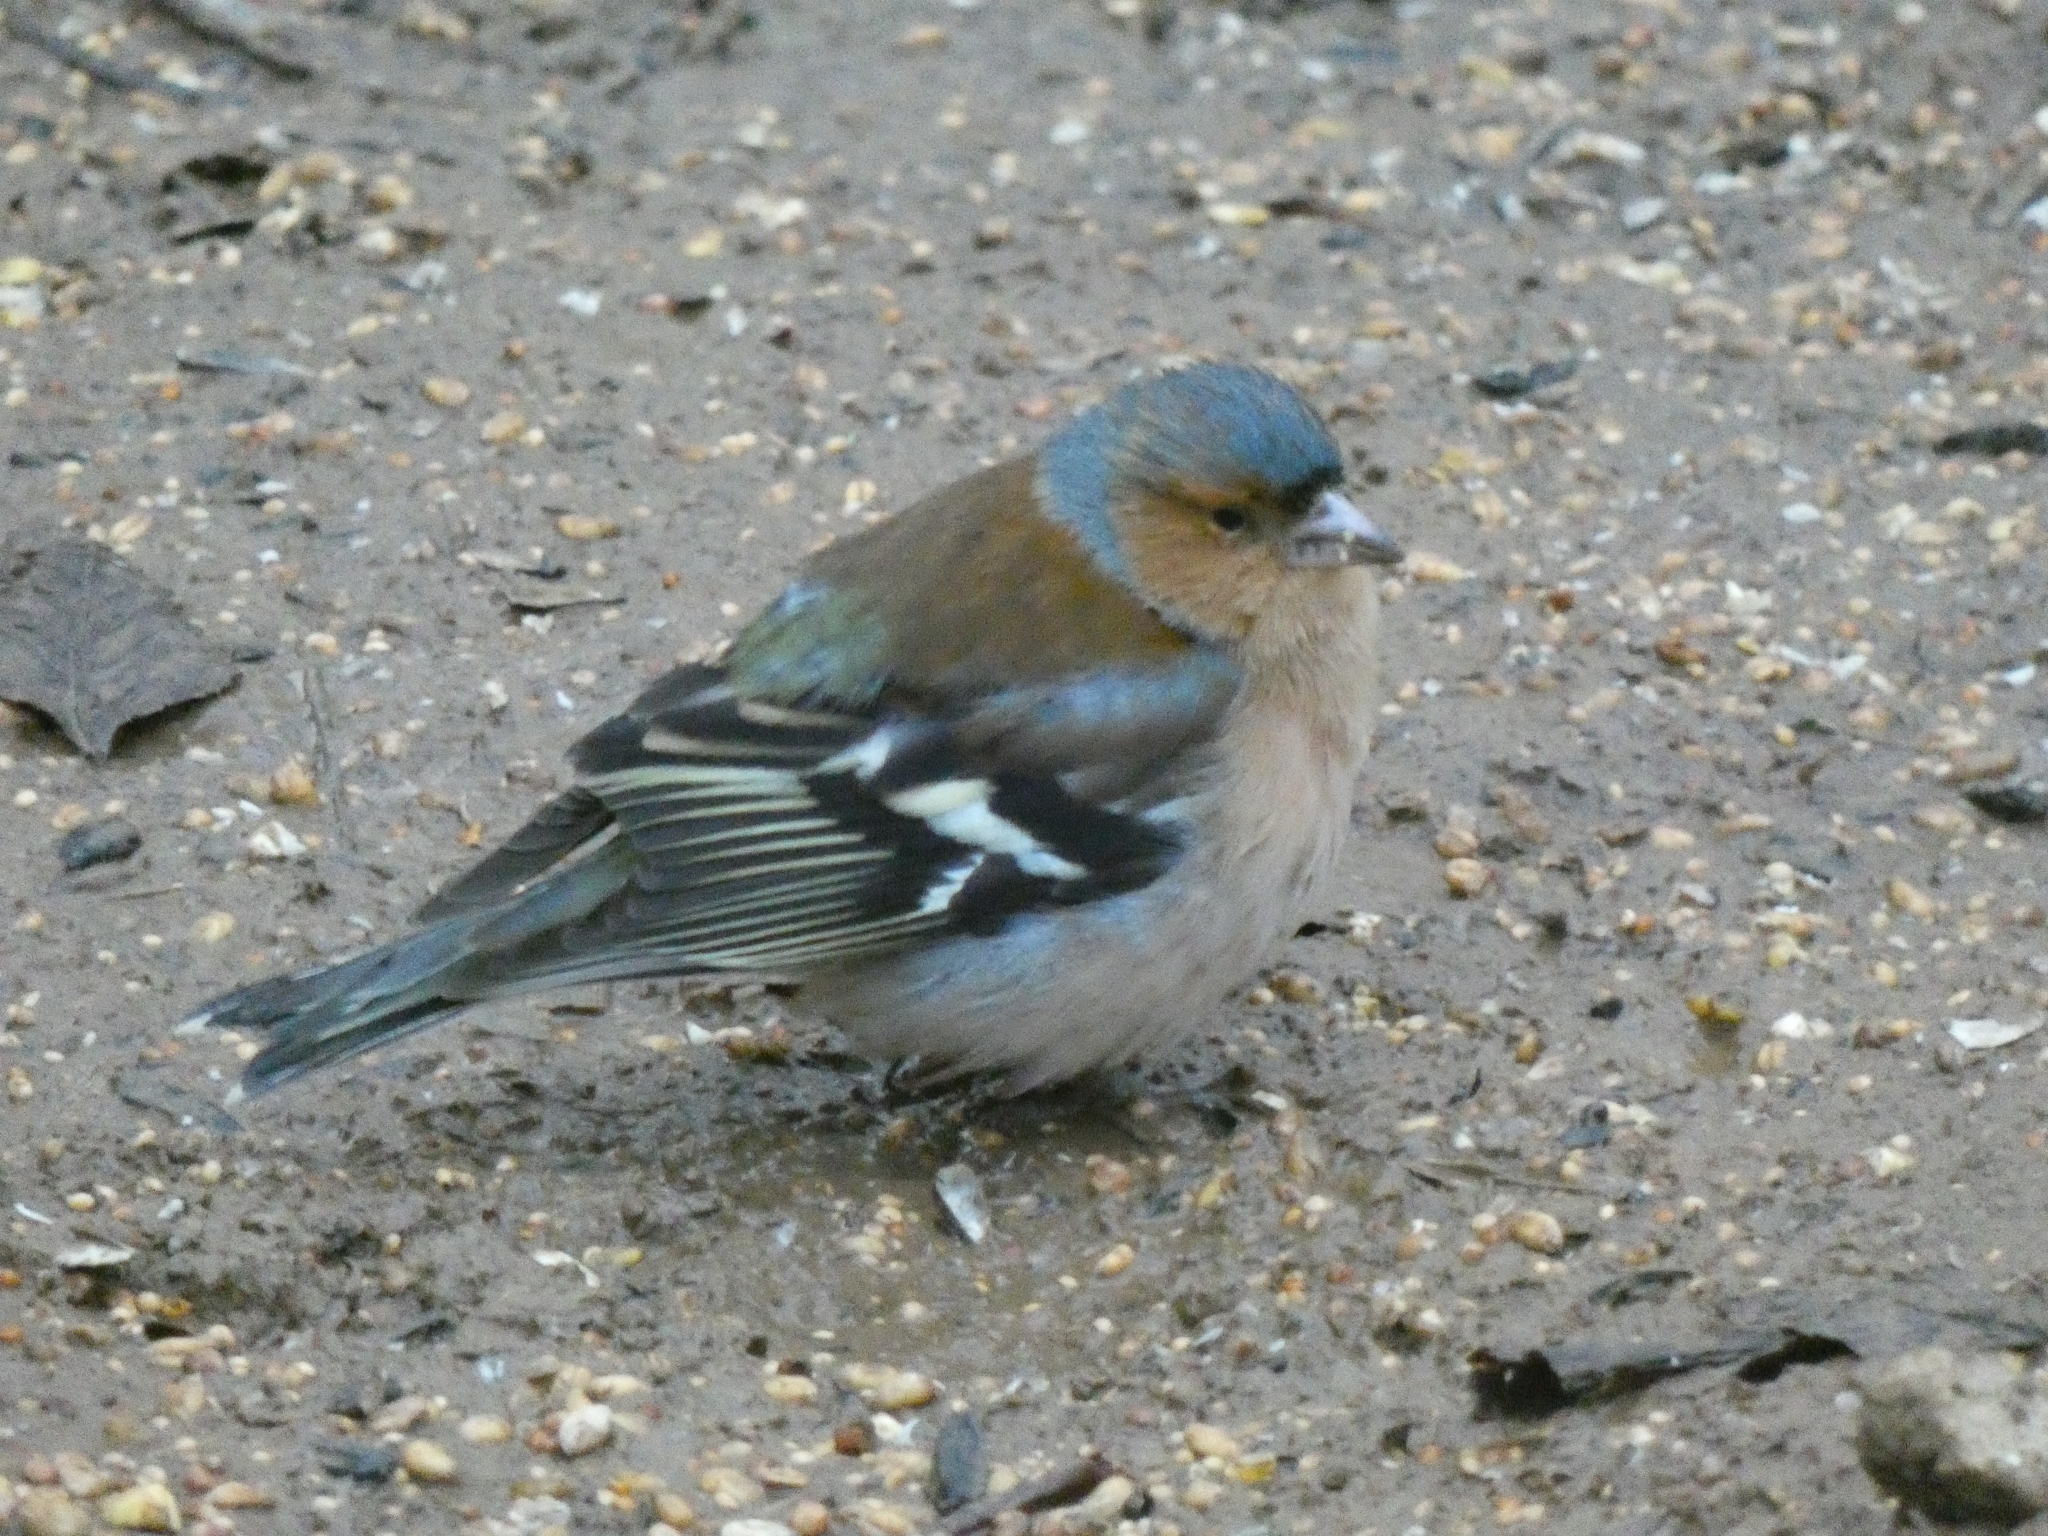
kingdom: Animalia
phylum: Chordata
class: Aves
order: Passeriformes
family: Fringillidae
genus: Fringilla
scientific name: Fringilla coelebs
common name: Common chaffinch
